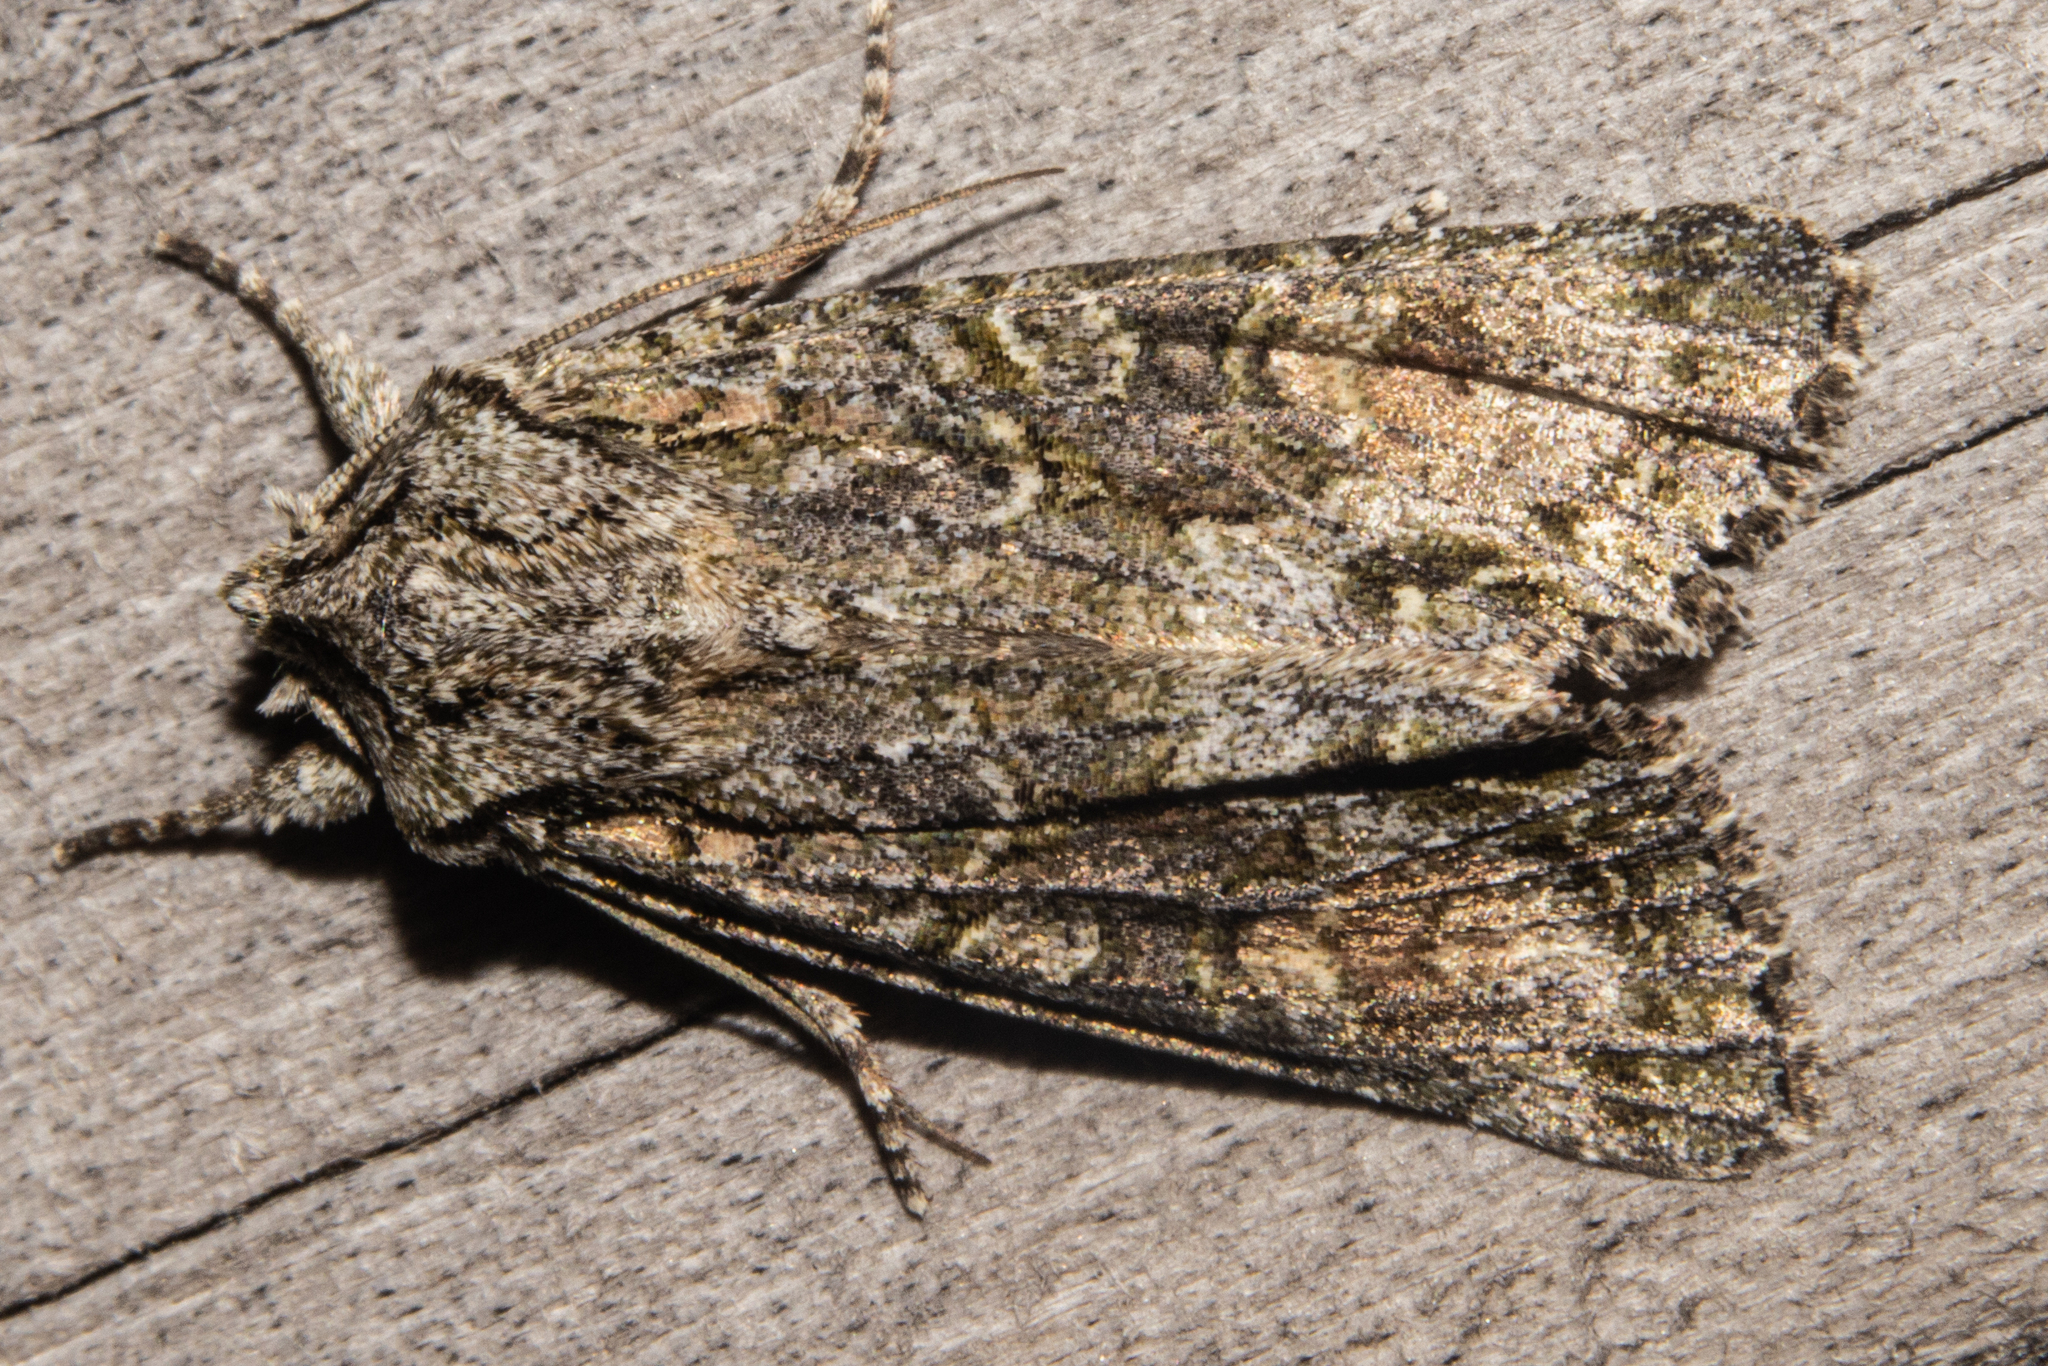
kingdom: Animalia
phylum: Arthropoda
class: Insecta
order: Lepidoptera
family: Noctuidae
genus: Ichneutica
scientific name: Ichneutica mutans
